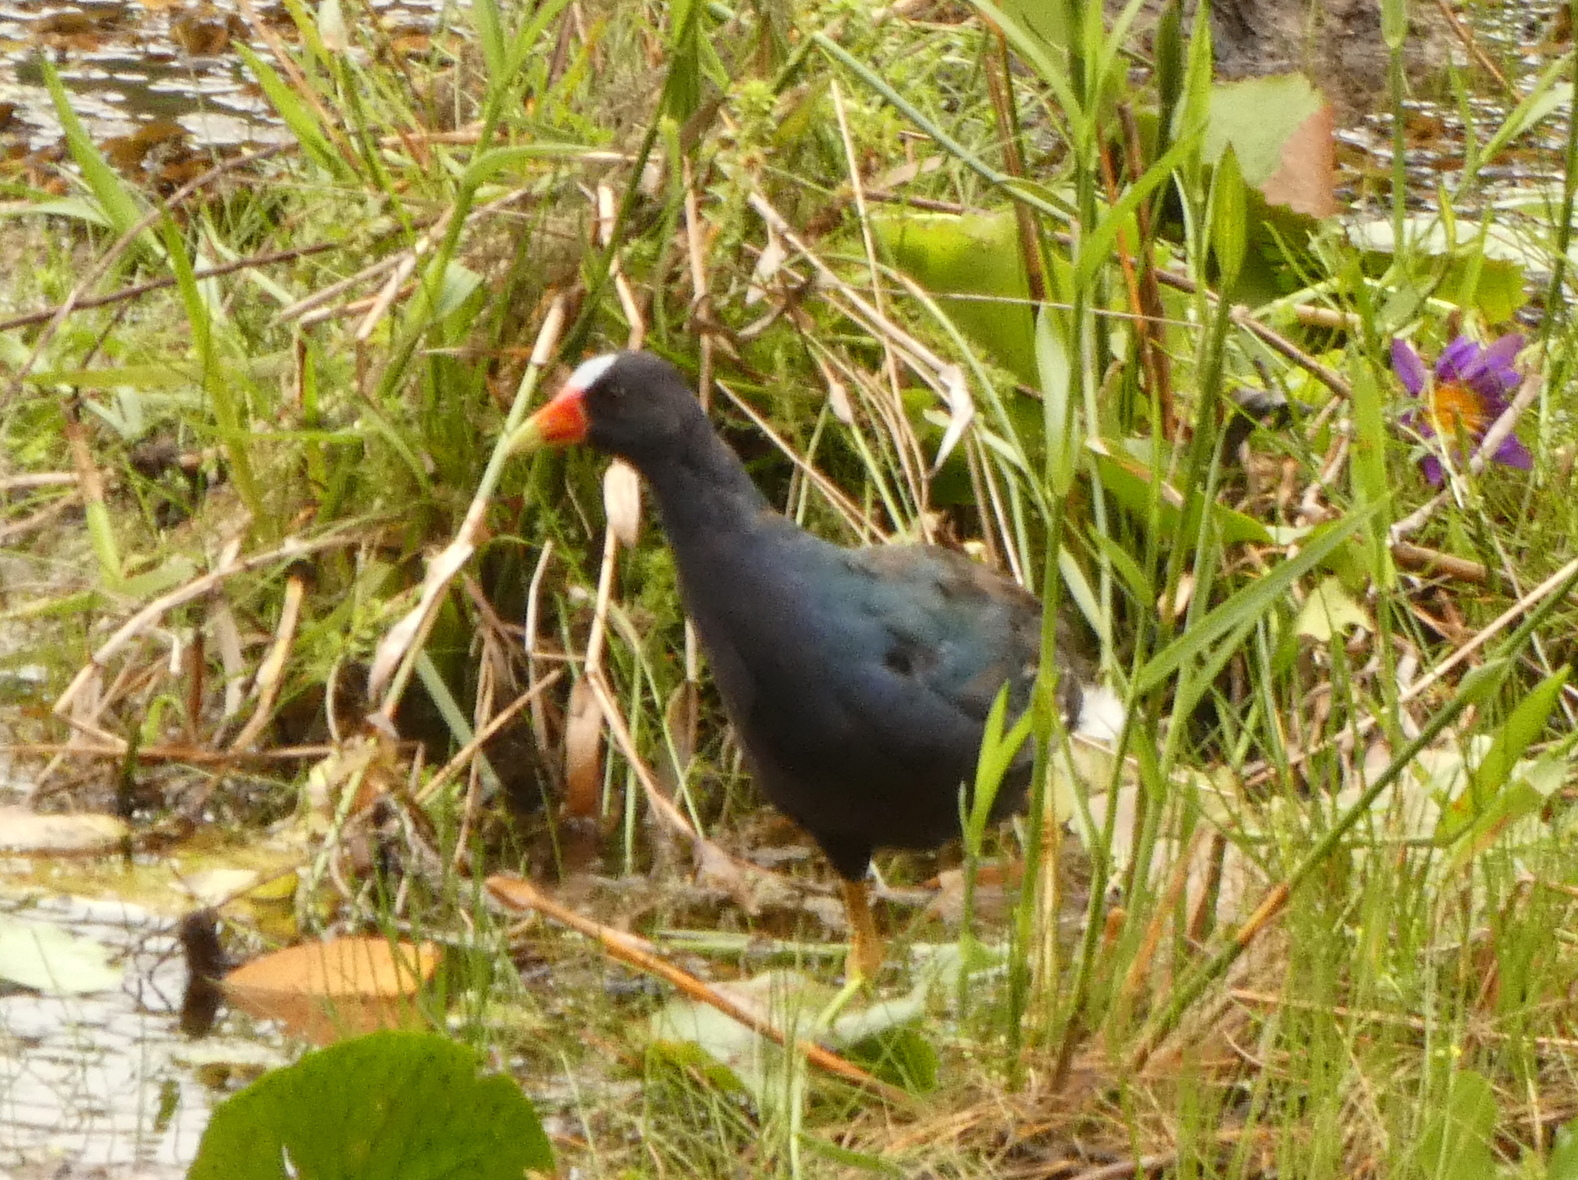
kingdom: Animalia
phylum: Chordata
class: Aves
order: Gruiformes
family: Rallidae
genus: Porphyrio
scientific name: Porphyrio martinica
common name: Purple gallinule
